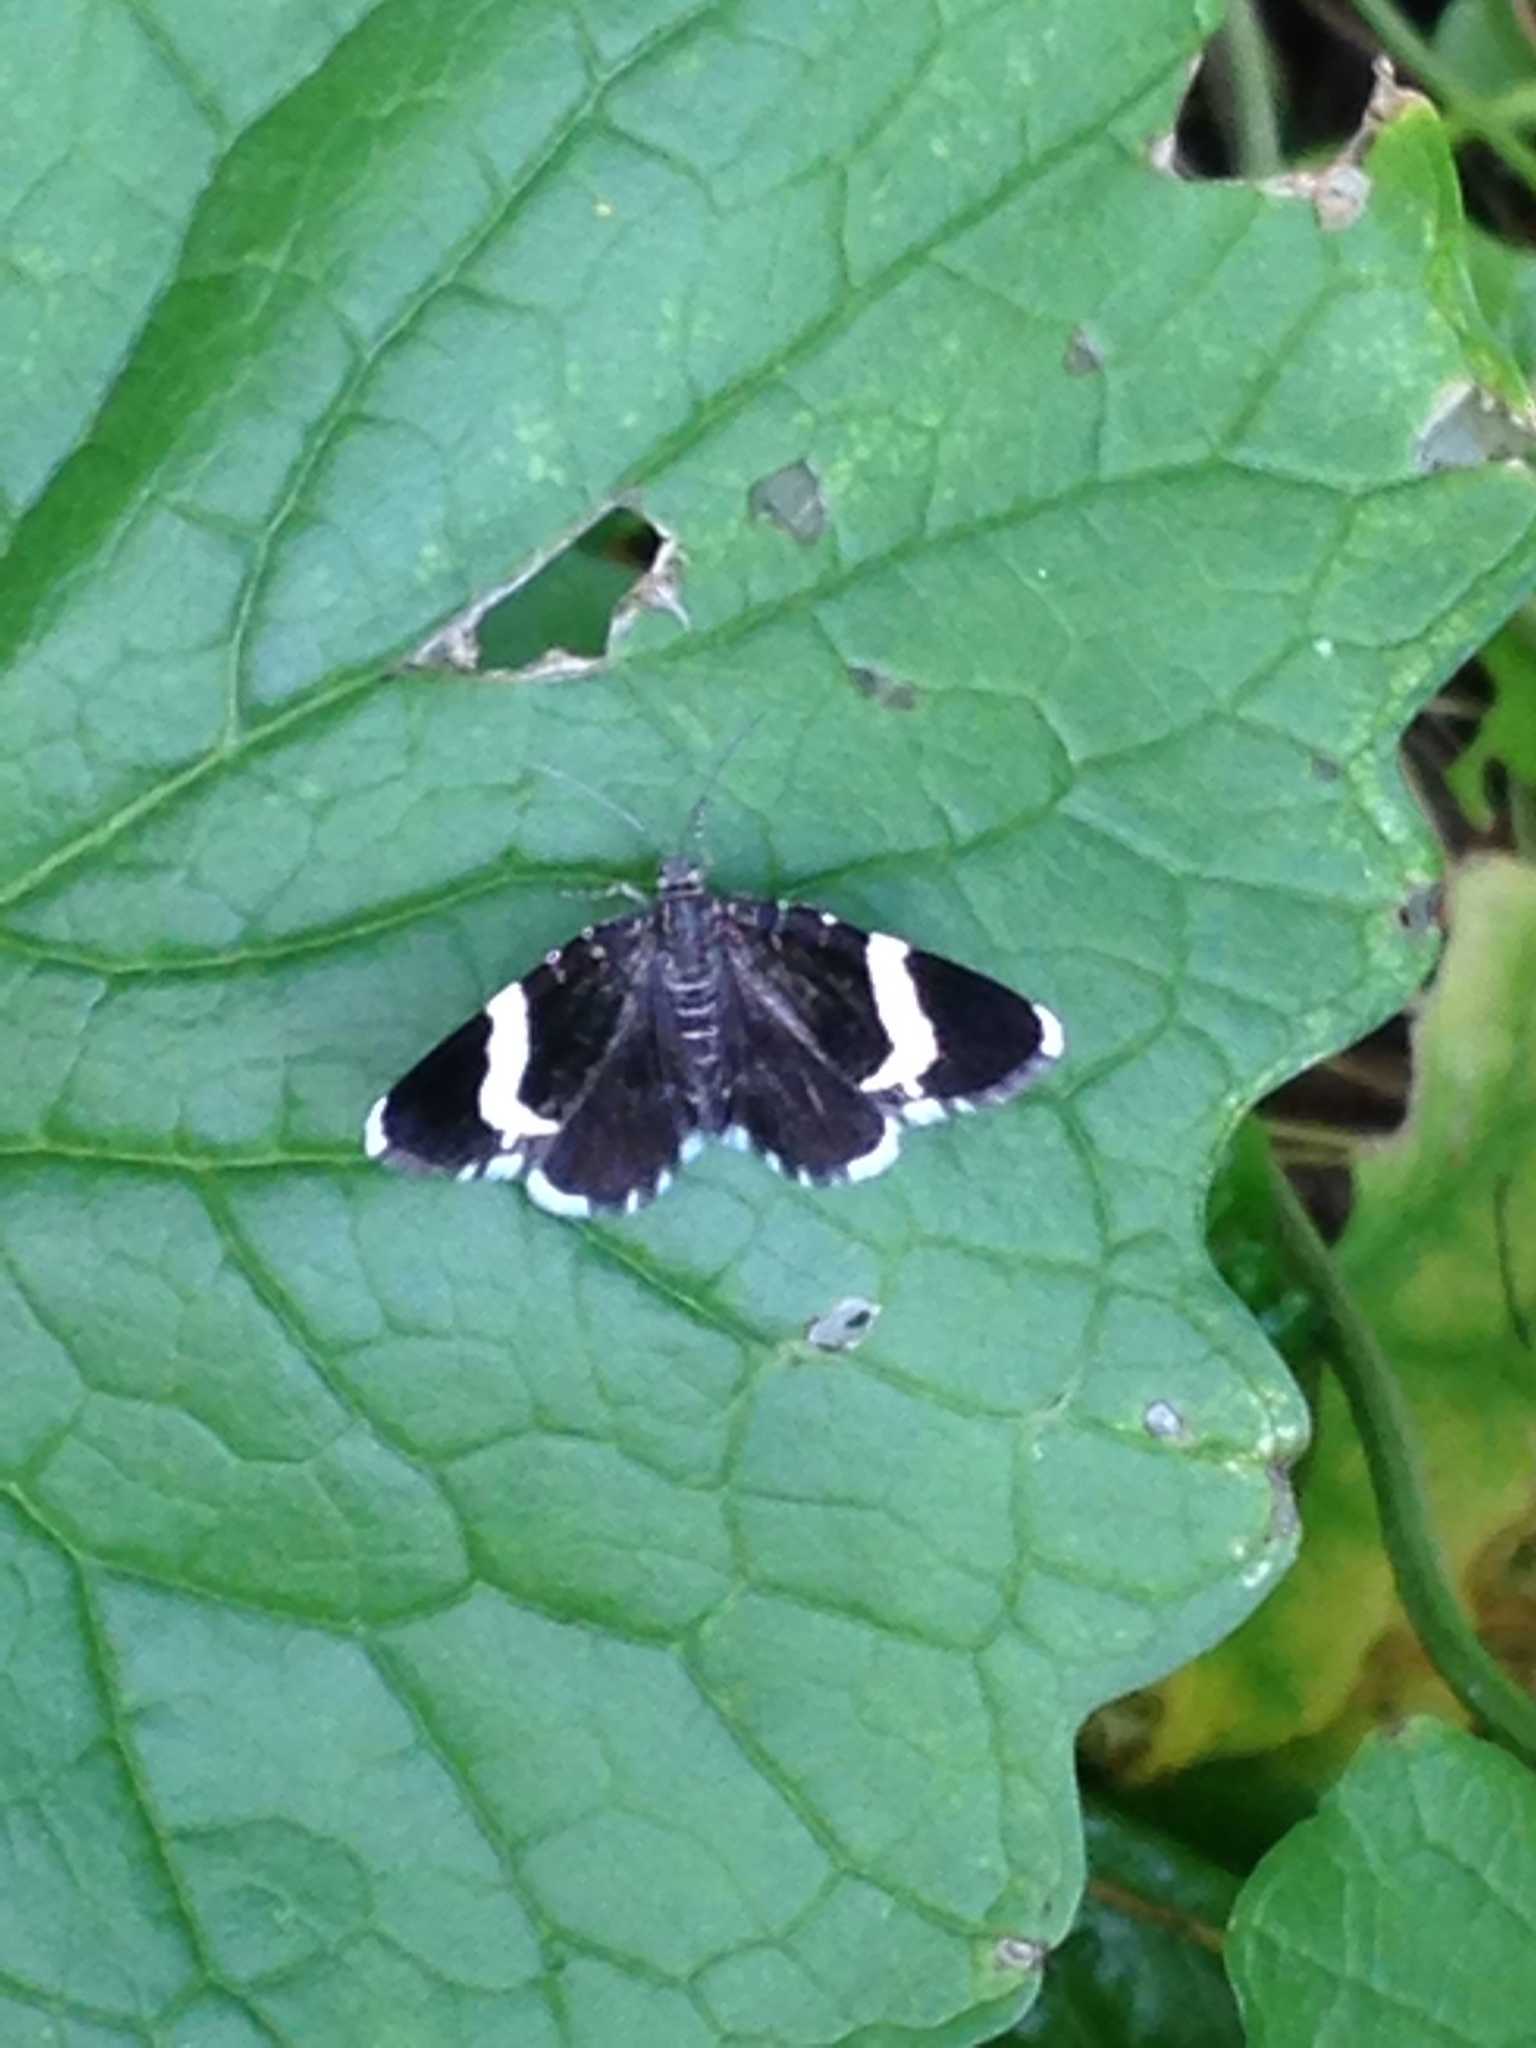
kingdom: Animalia
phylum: Arthropoda
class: Insecta
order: Lepidoptera
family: Geometridae
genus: Trichodezia
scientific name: Trichodezia albovittata
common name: White striped black
